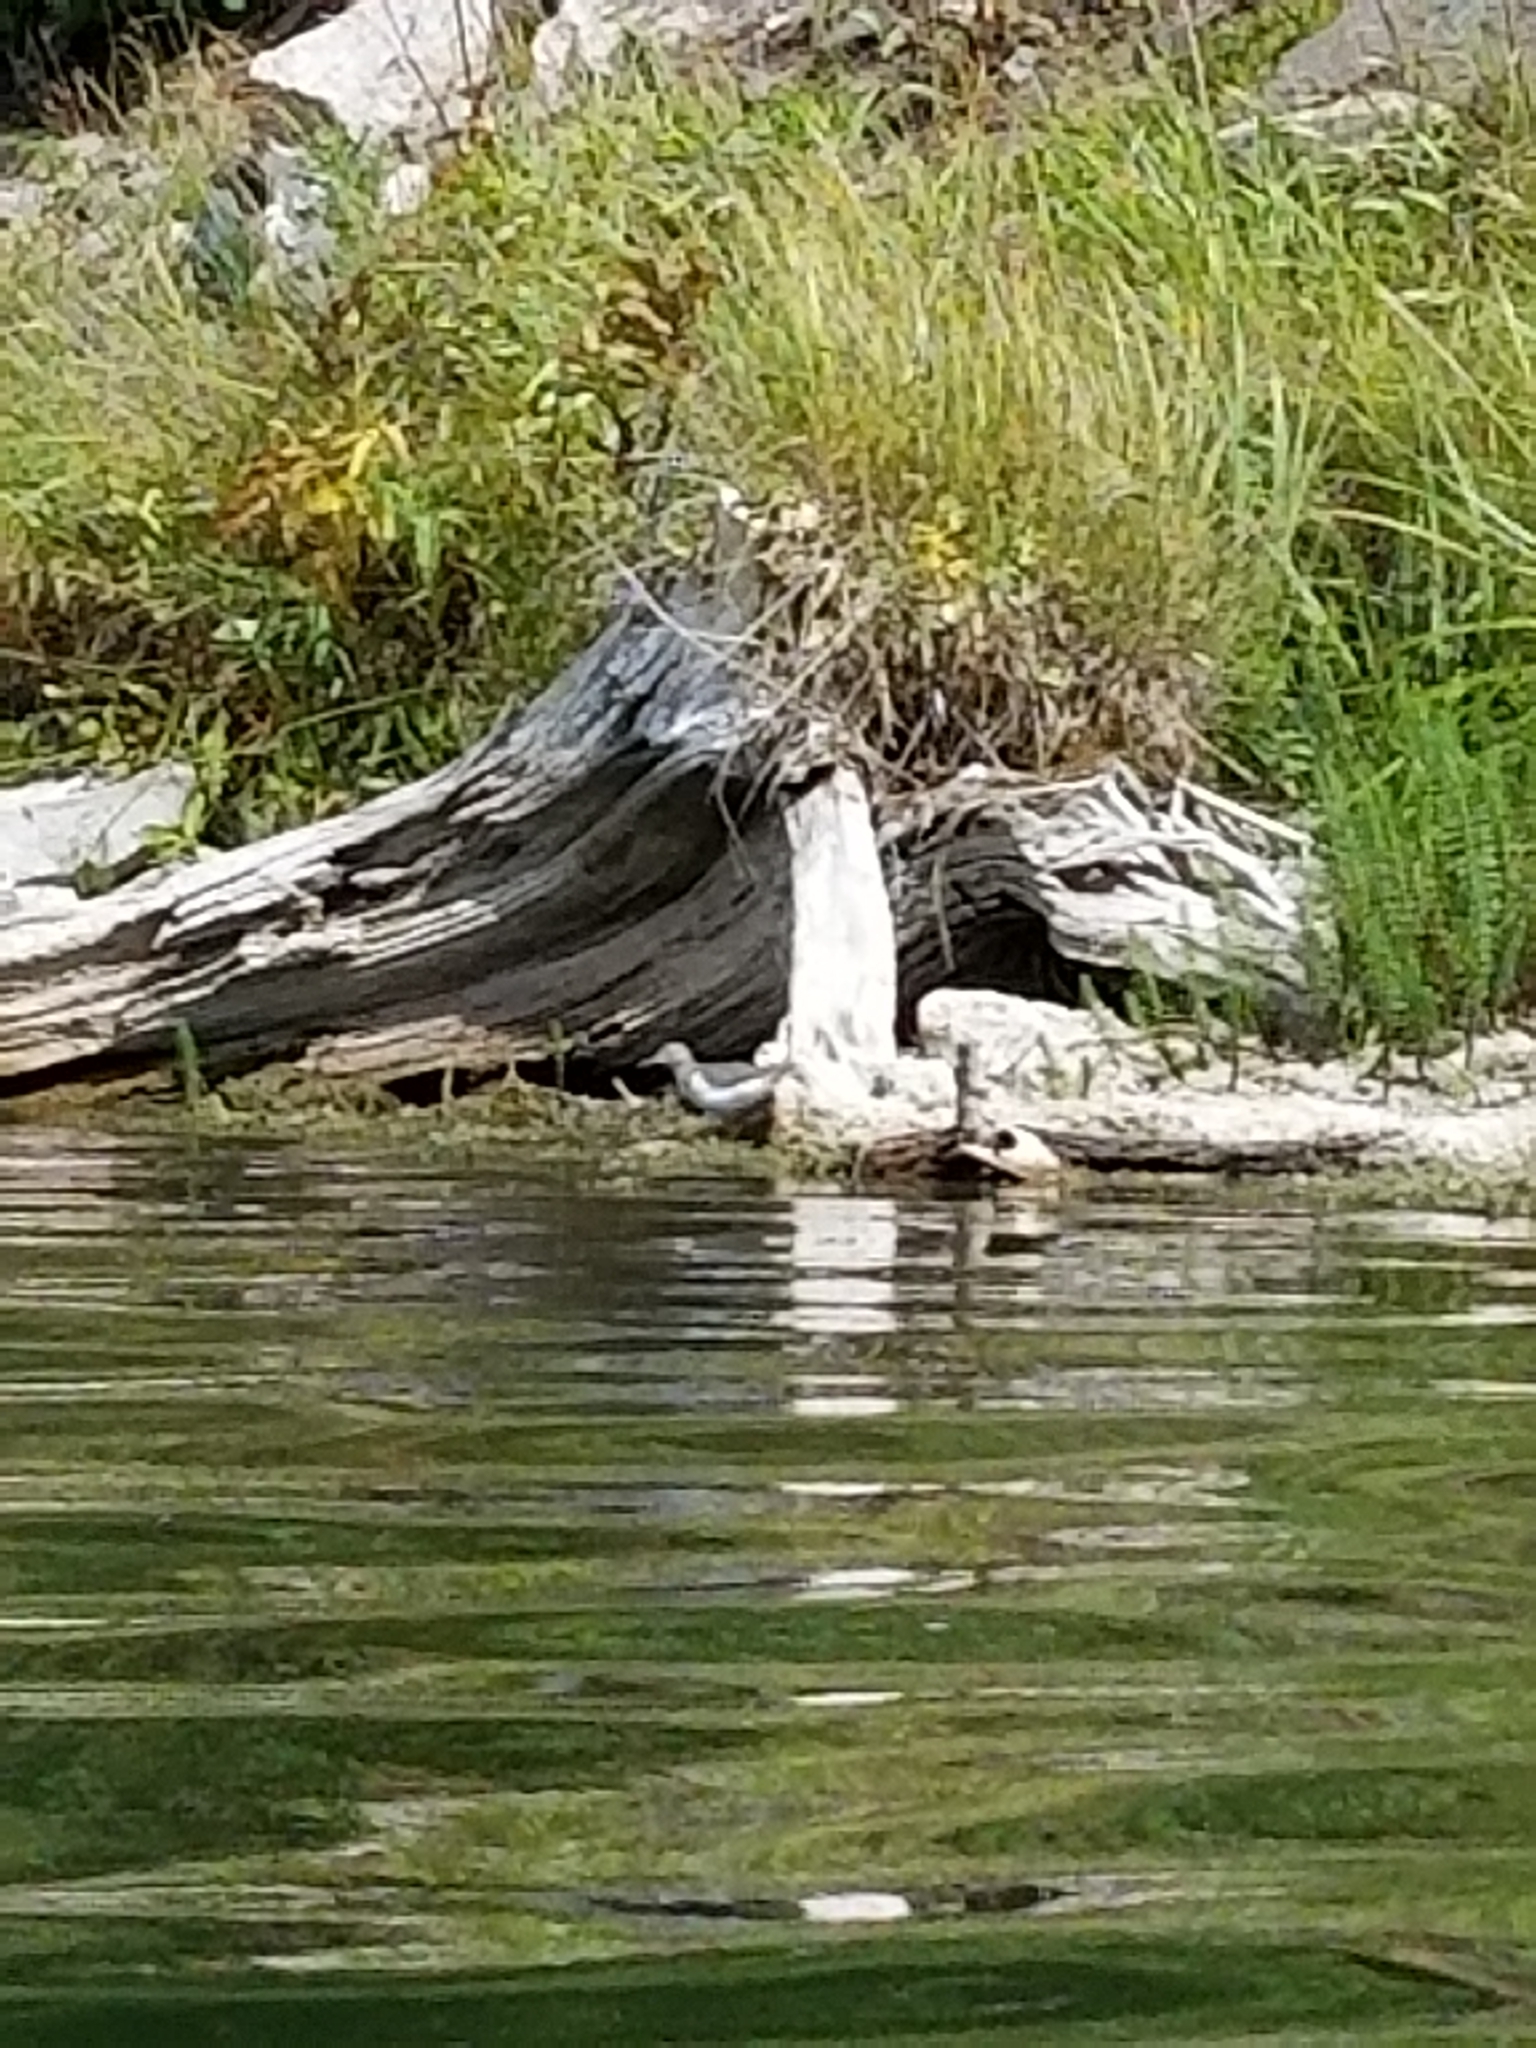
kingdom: Animalia
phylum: Chordata
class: Aves
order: Charadriiformes
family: Scolopacidae
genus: Actitis
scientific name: Actitis macularius
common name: Spotted sandpiper
